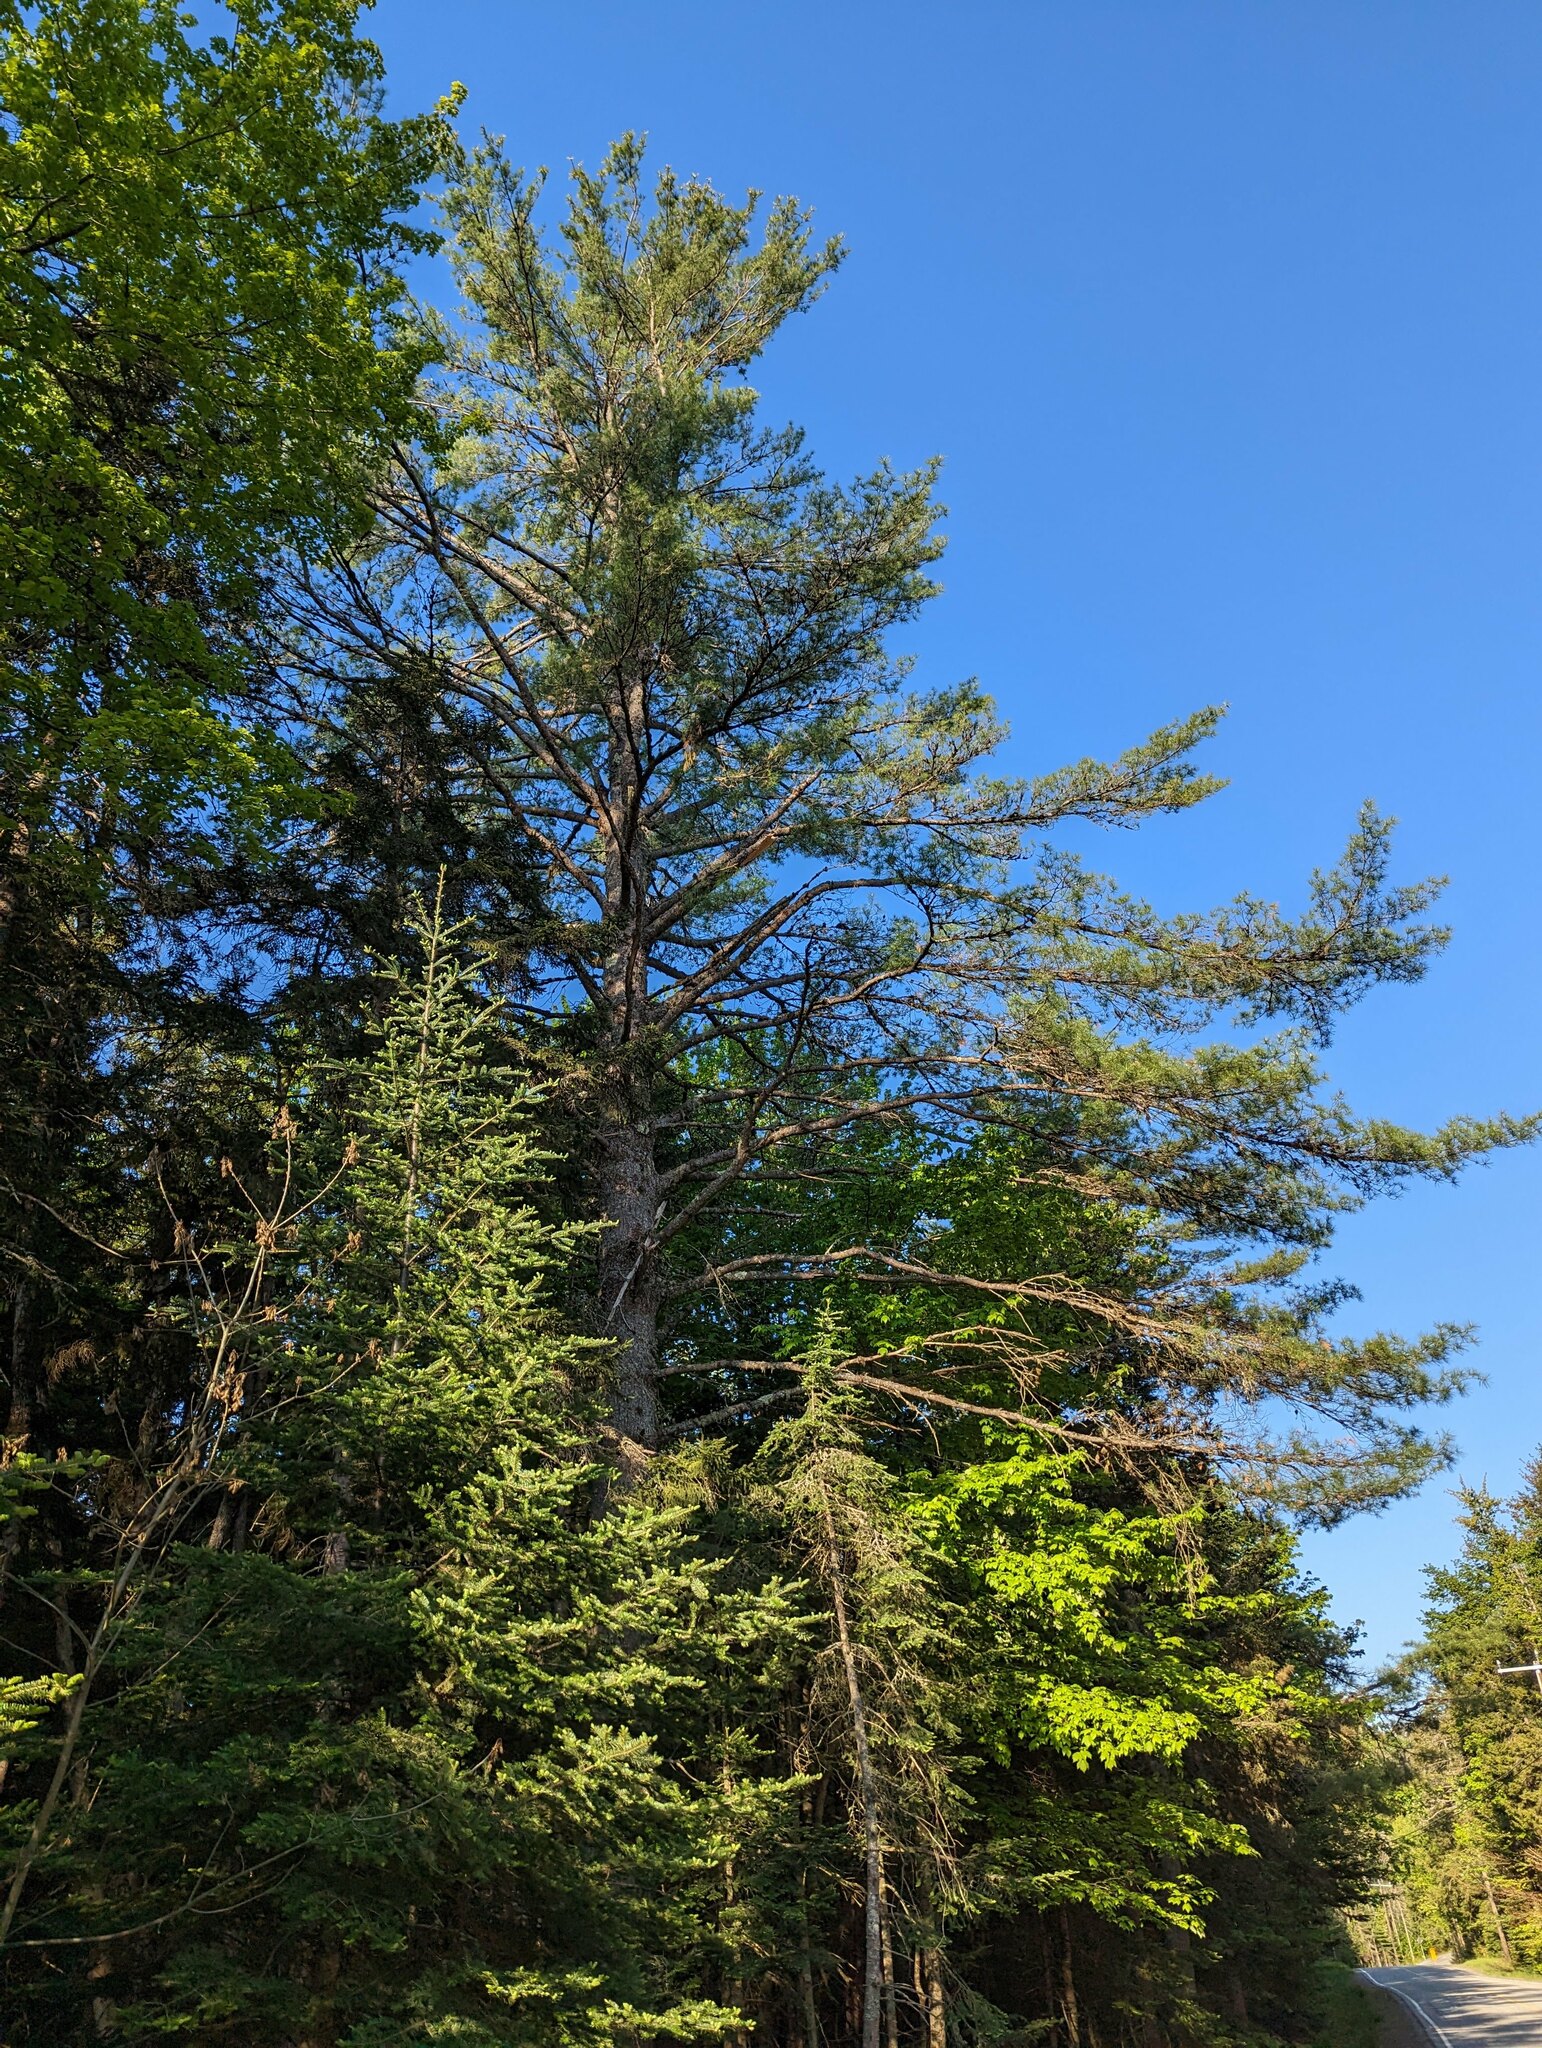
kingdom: Plantae
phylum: Tracheophyta
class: Pinopsida
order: Pinales
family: Pinaceae
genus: Pinus
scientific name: Pinus strobus
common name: Weymouth pine
